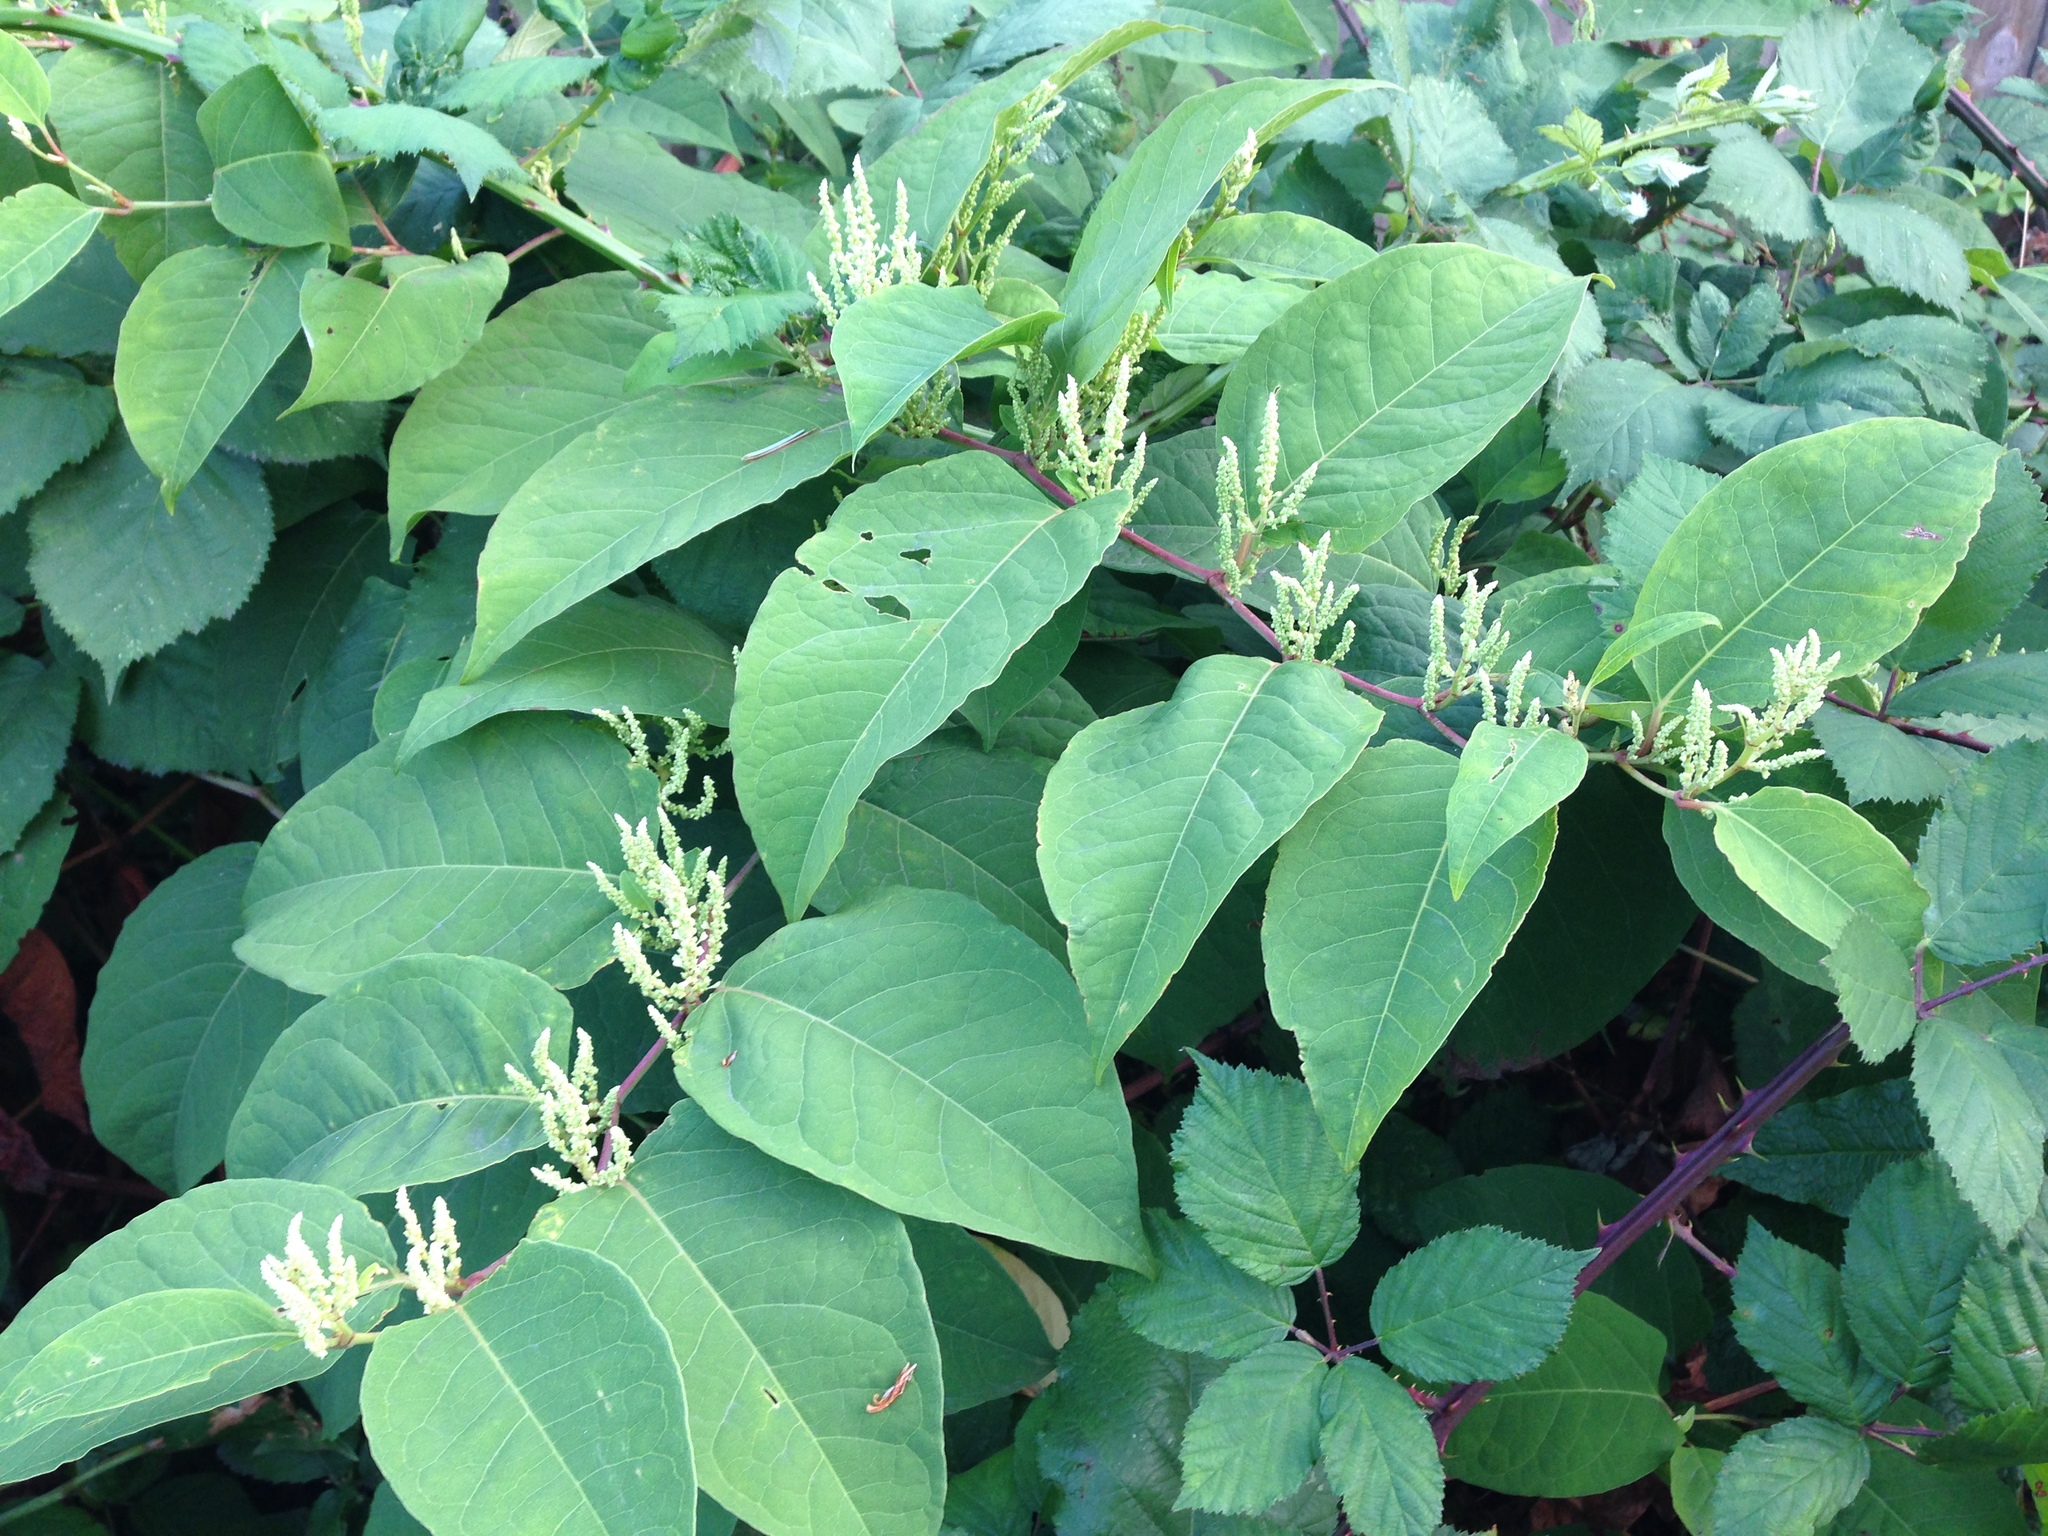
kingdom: Plantae
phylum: Tracheophyta
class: Magnoliopsida
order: Caryophyllales
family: Polygonaceae
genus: Reynoutria
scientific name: Reynoutria japonica
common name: Japanese knotweed
